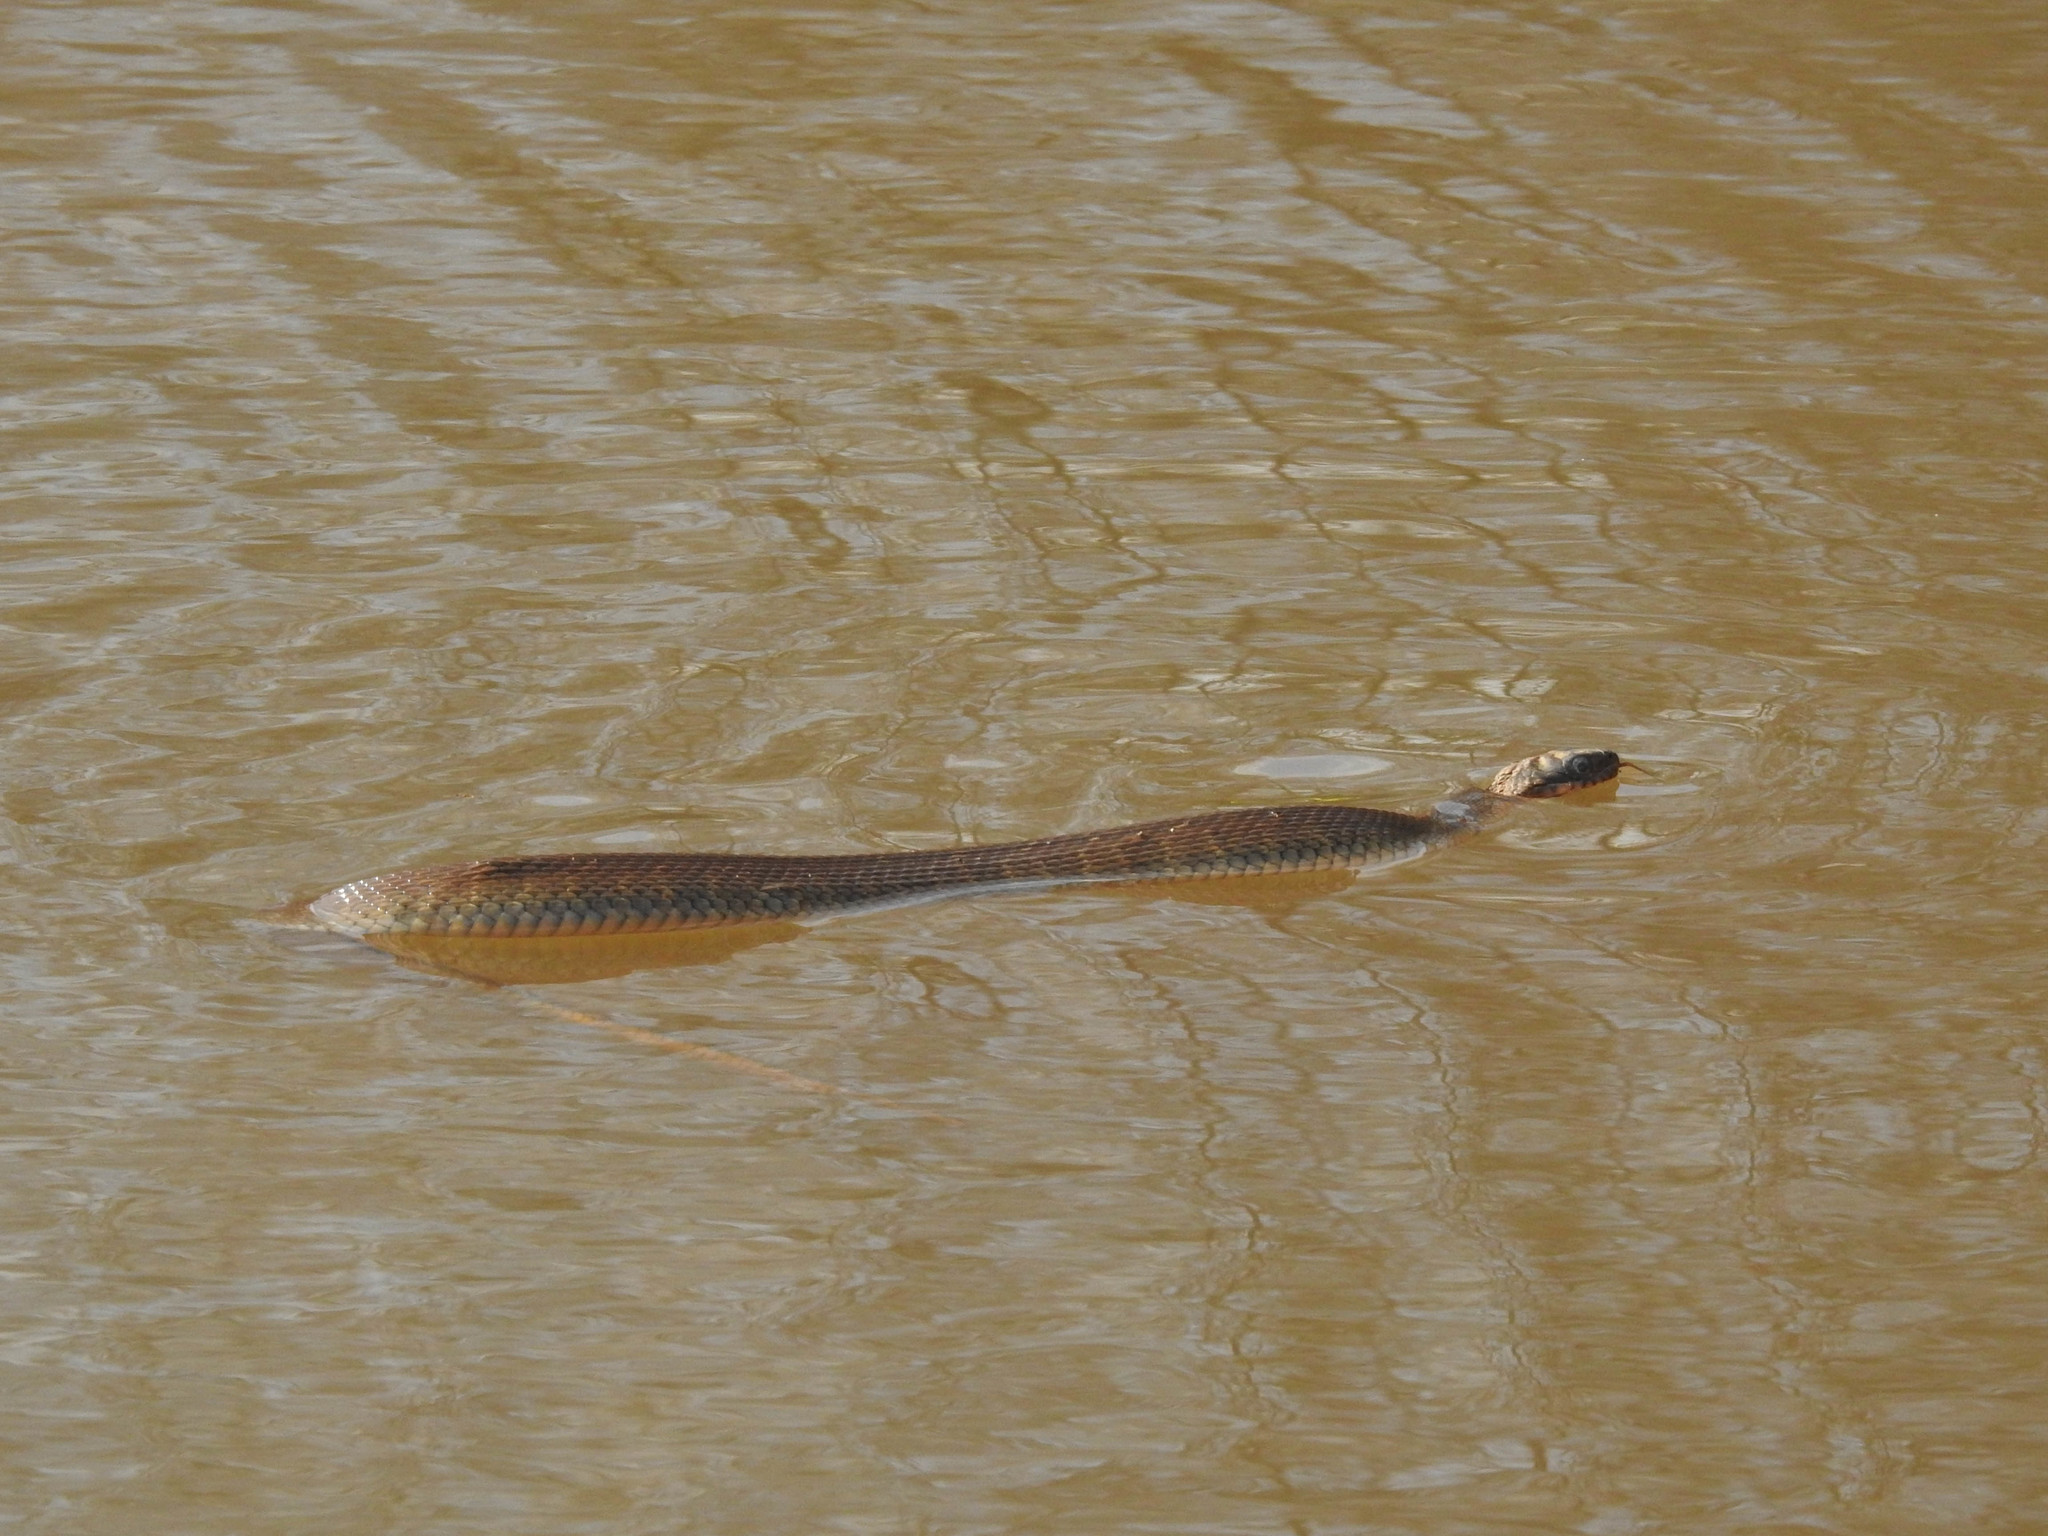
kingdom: Animalia
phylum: Chordata
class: Squamata
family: Colubridae
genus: Nerodia
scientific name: Nerodia sipedon
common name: Northern water snake
